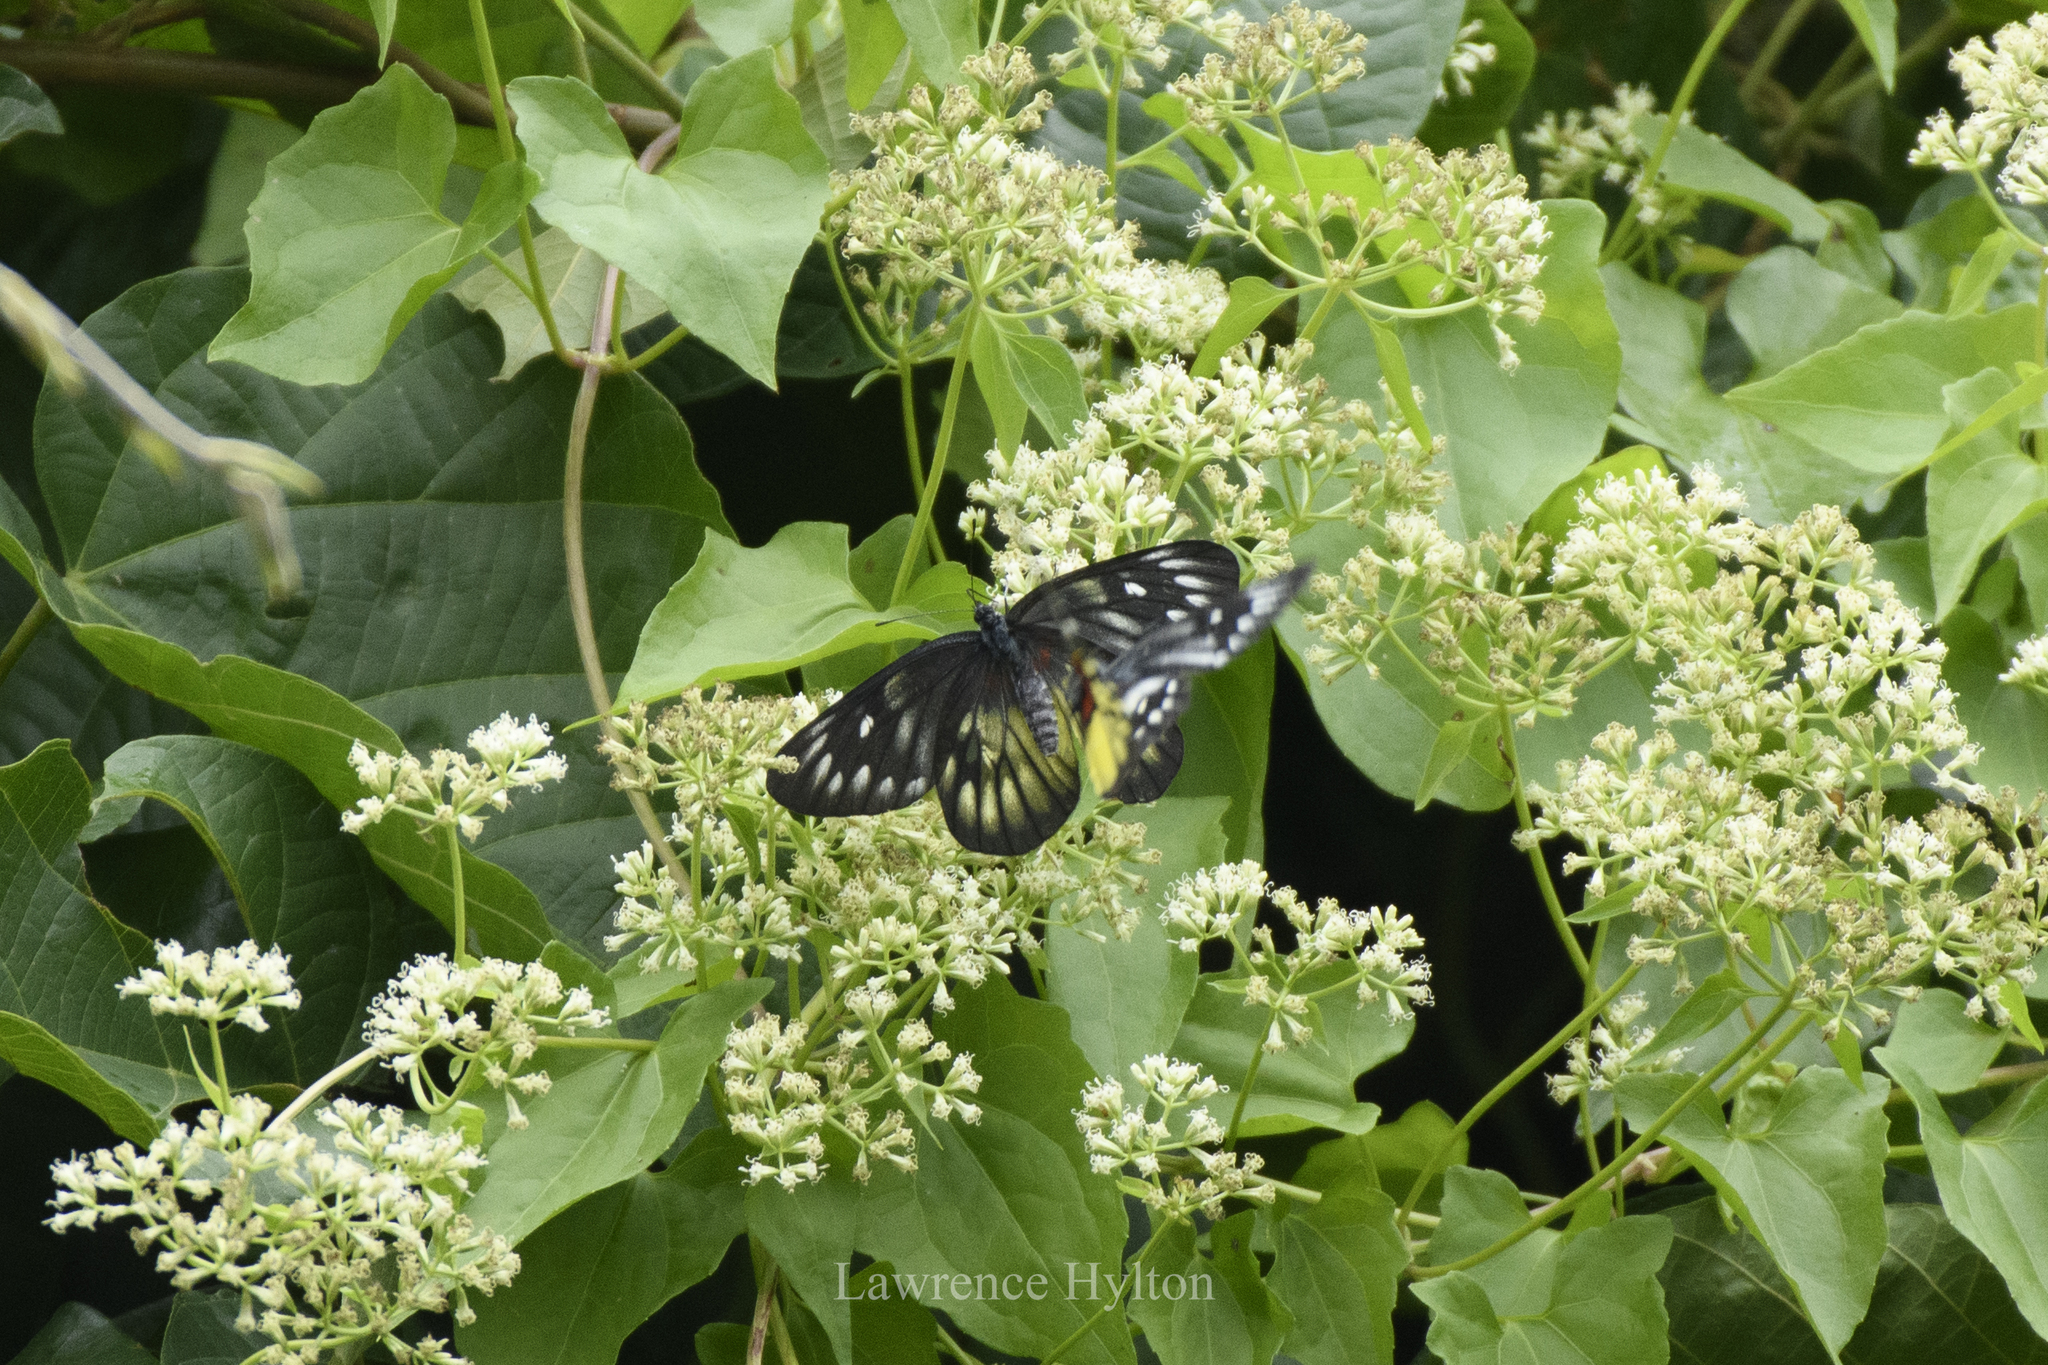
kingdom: Animalia
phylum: Arthropoda
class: Insecta
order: Lepidoptera
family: Pieridae
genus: Delias
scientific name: Delias pasithoe
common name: Red-base jezebel
